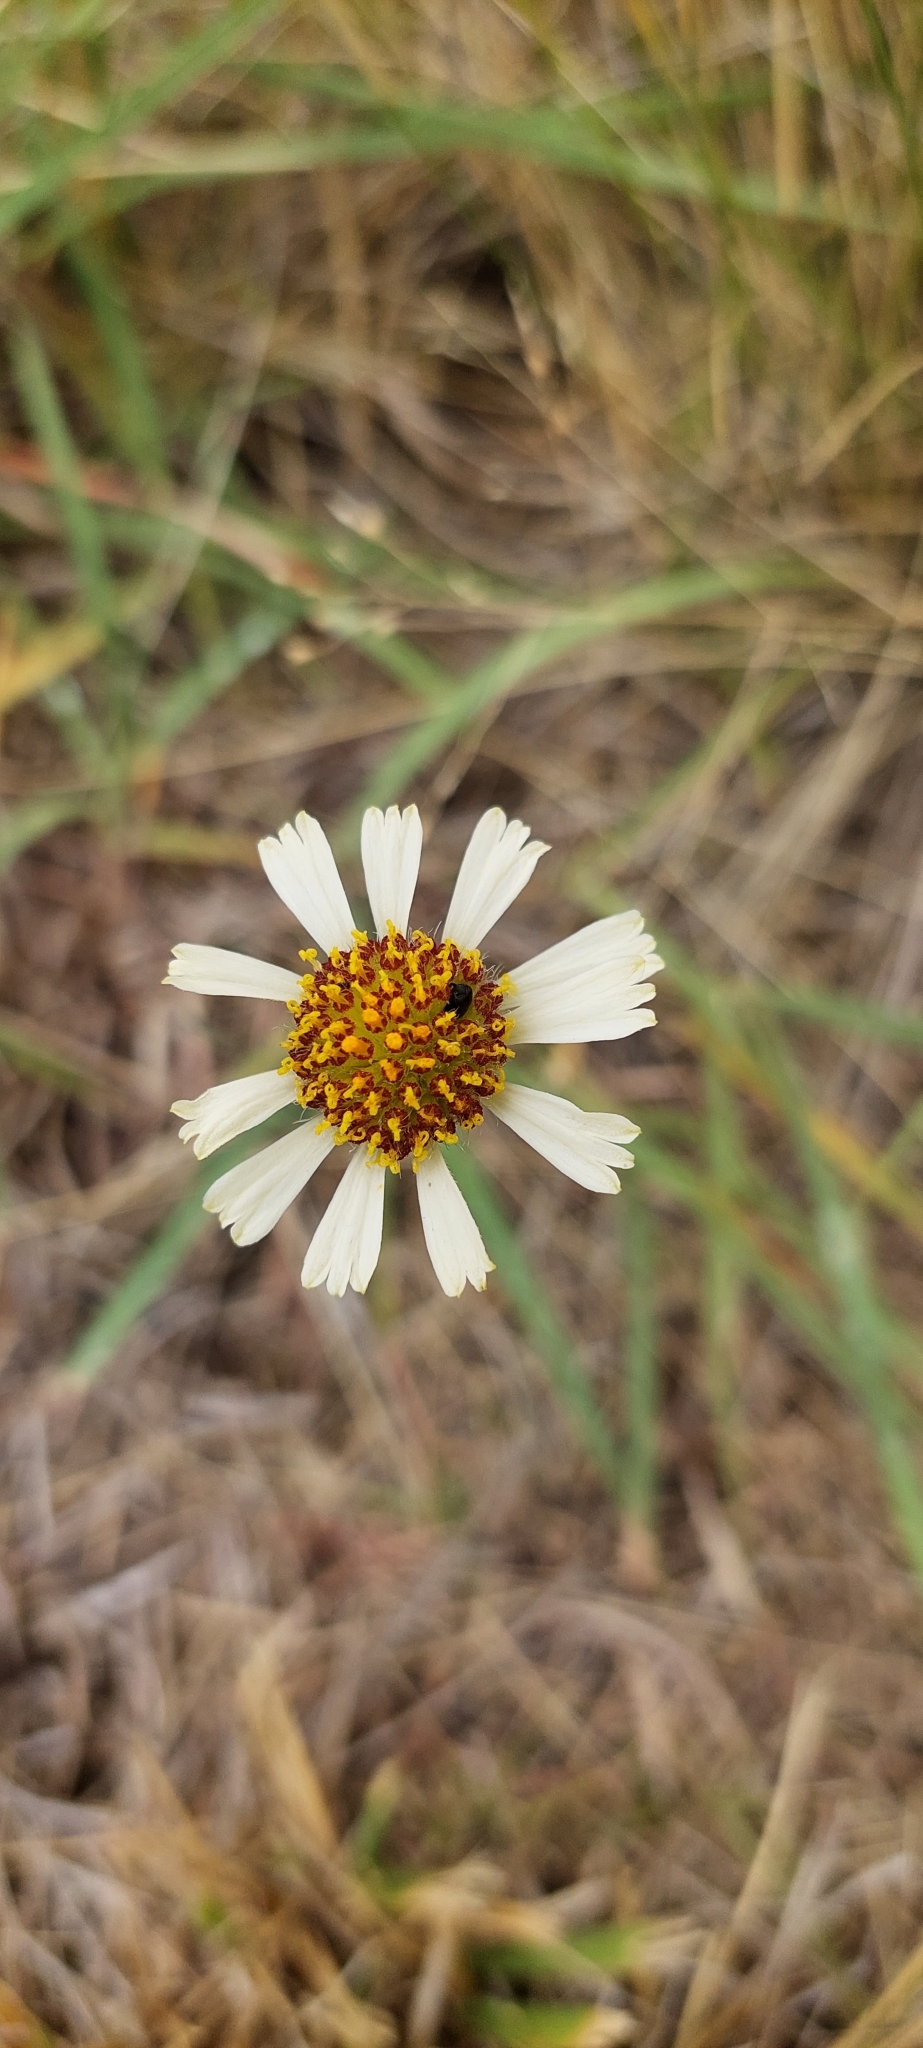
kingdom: Plantae
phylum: Tracheophyta
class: Magnoliopsida
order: Asterales
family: Asteraceae
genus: Helenium
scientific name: Helenium uniflorum
